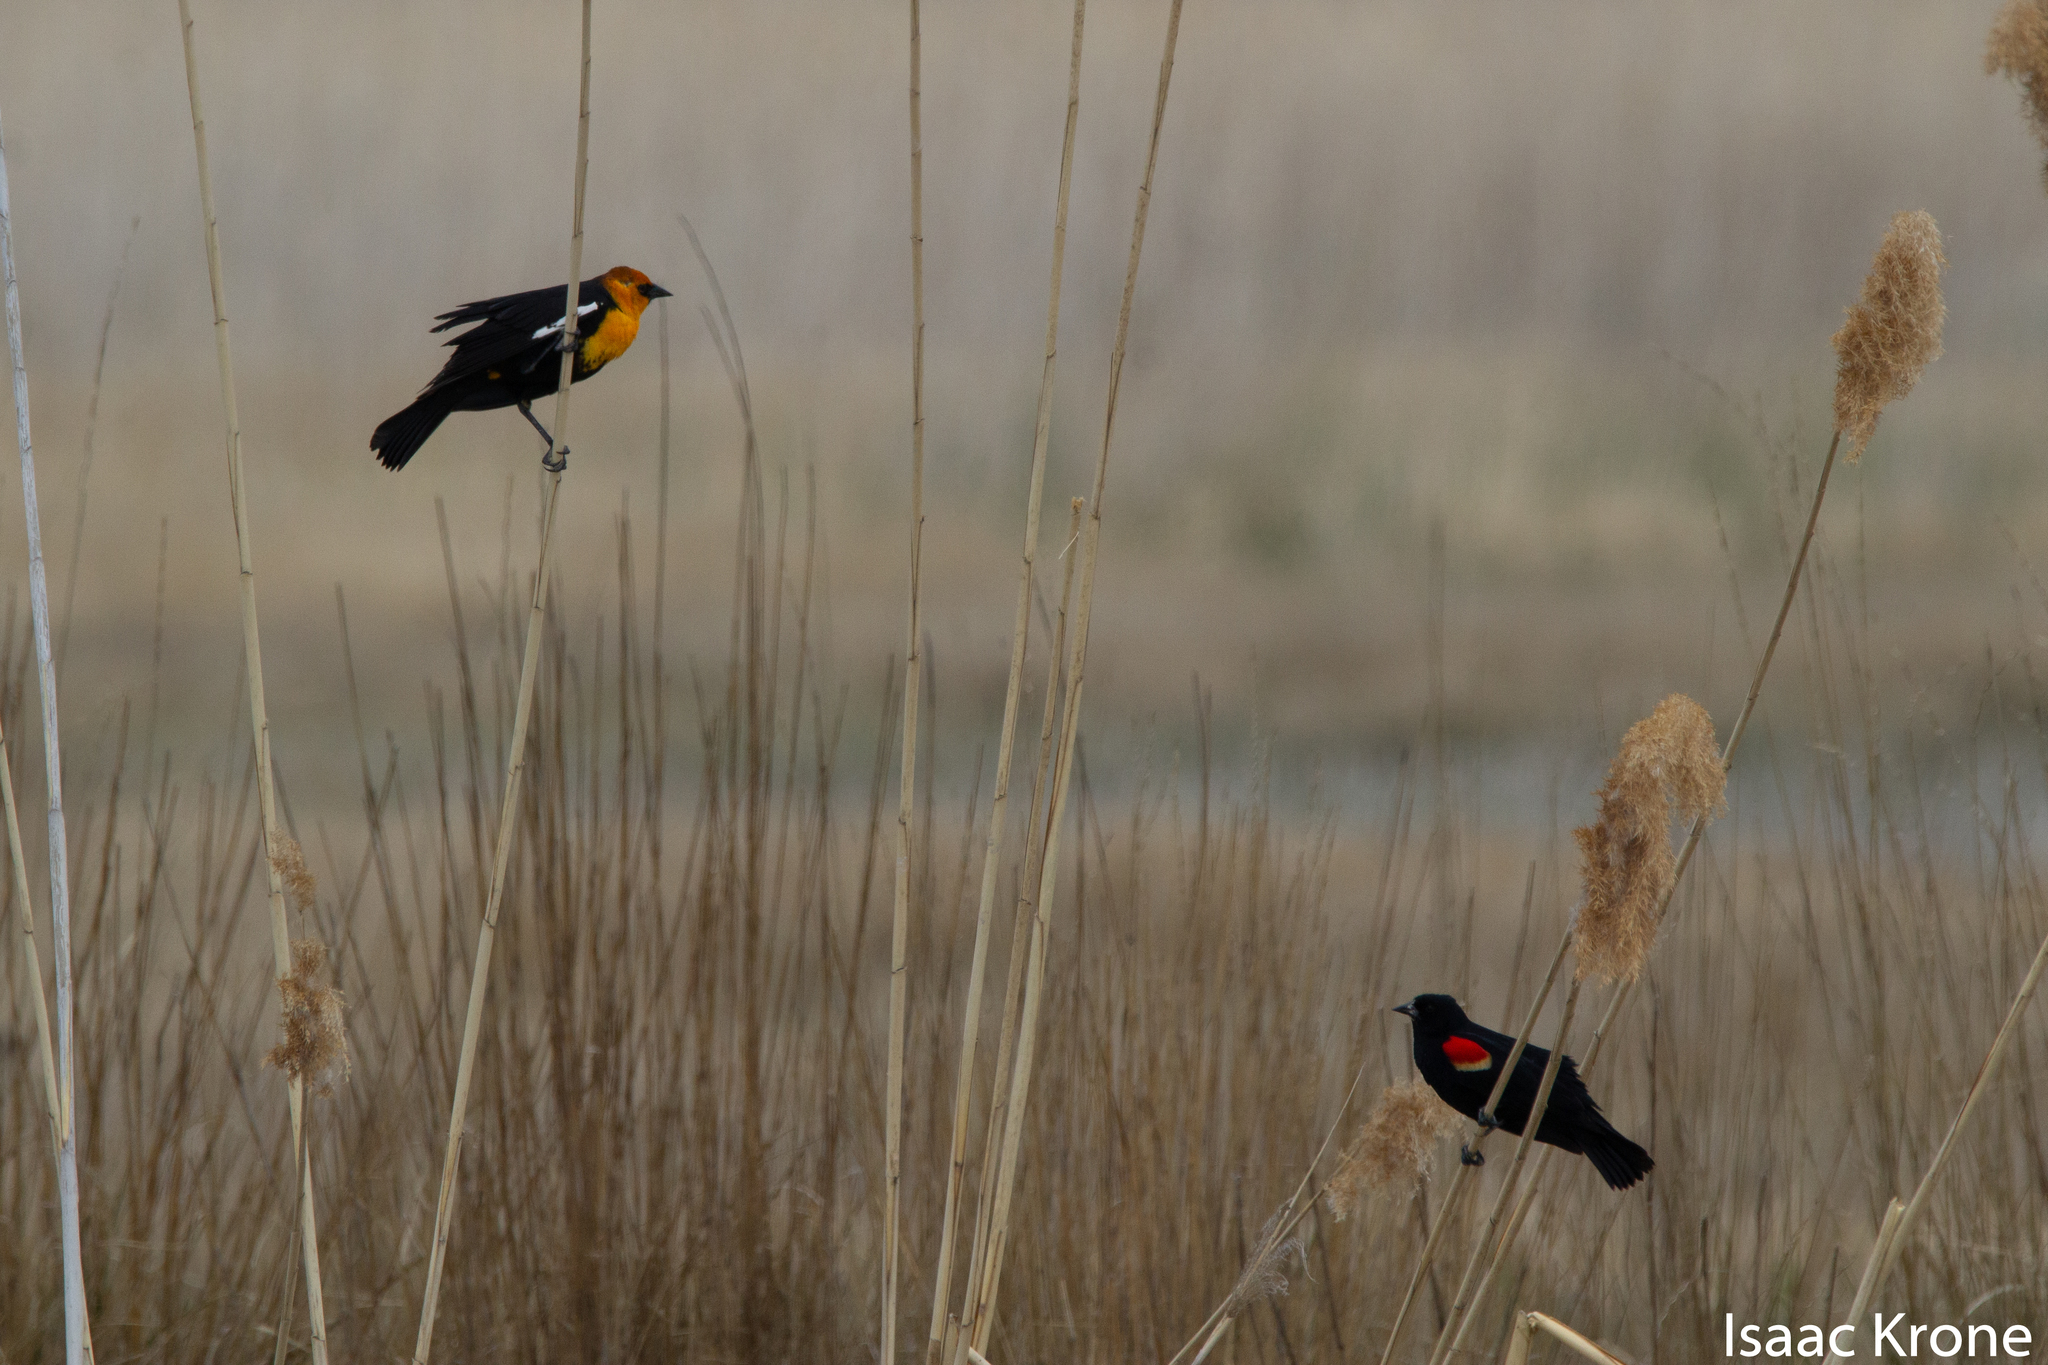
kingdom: Animalia
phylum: Chordata
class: Aves
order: Passeriformes
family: Icteridae
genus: Xanthocephalus
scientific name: Xanthocephalus xanthocephalus
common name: Yellow-headed blackbird
